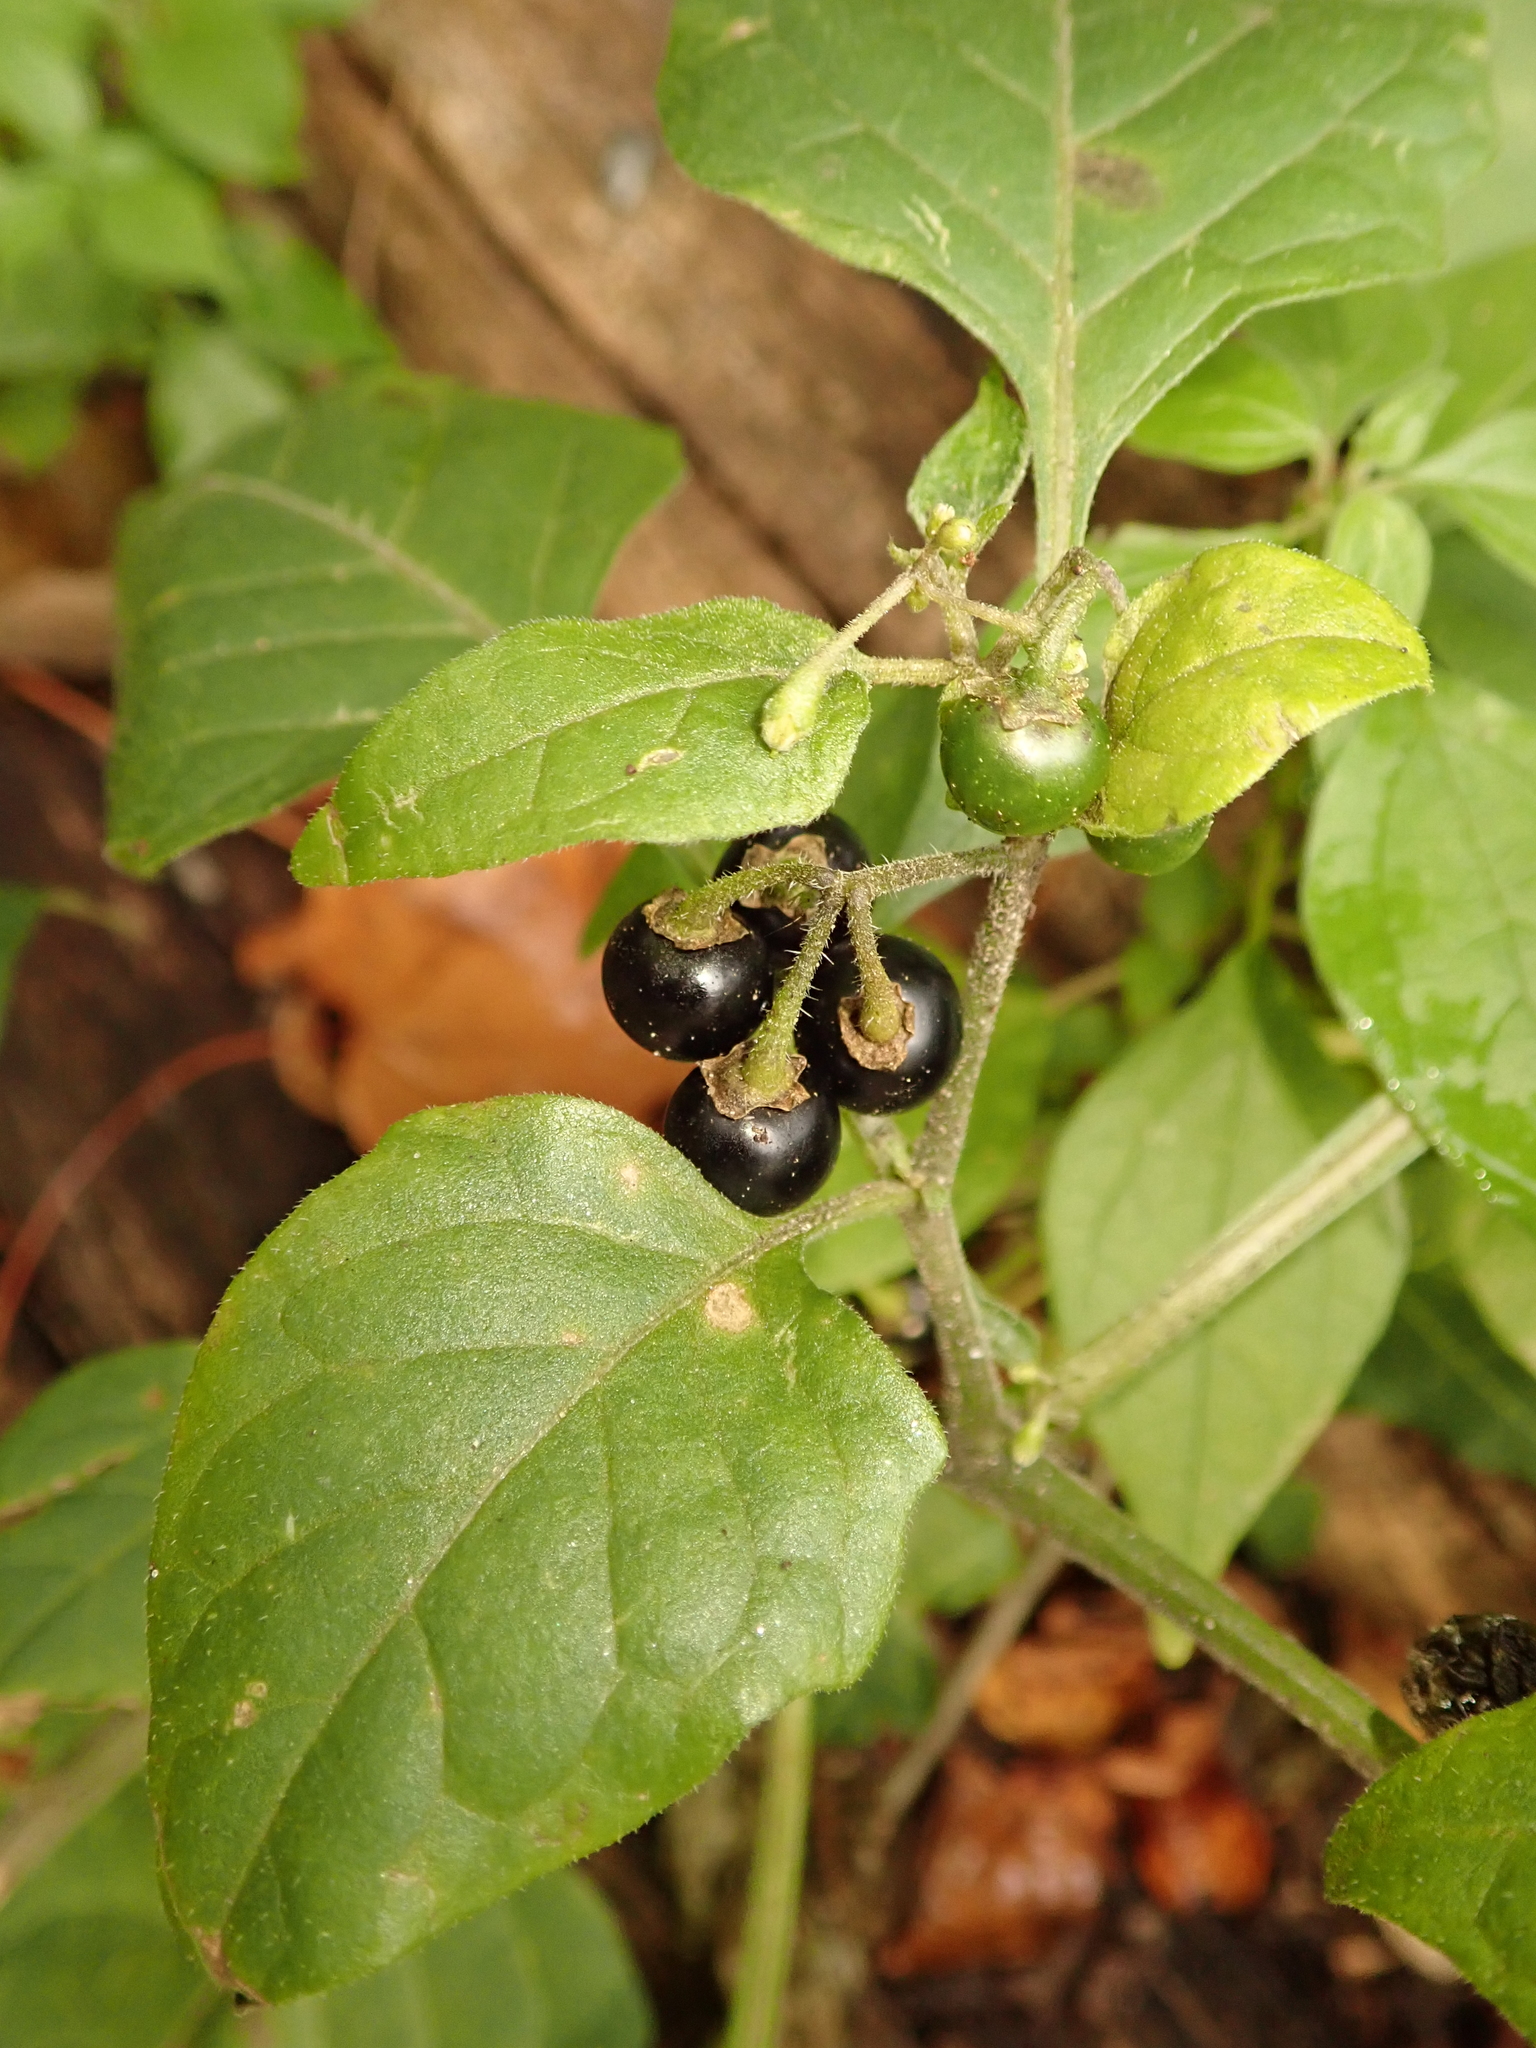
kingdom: Plantae
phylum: Tracheophyta
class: Magnoliopsida
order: Solanales
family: Solanaceae
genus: Solanum
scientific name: Solanum nigrum
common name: Black nightshade
